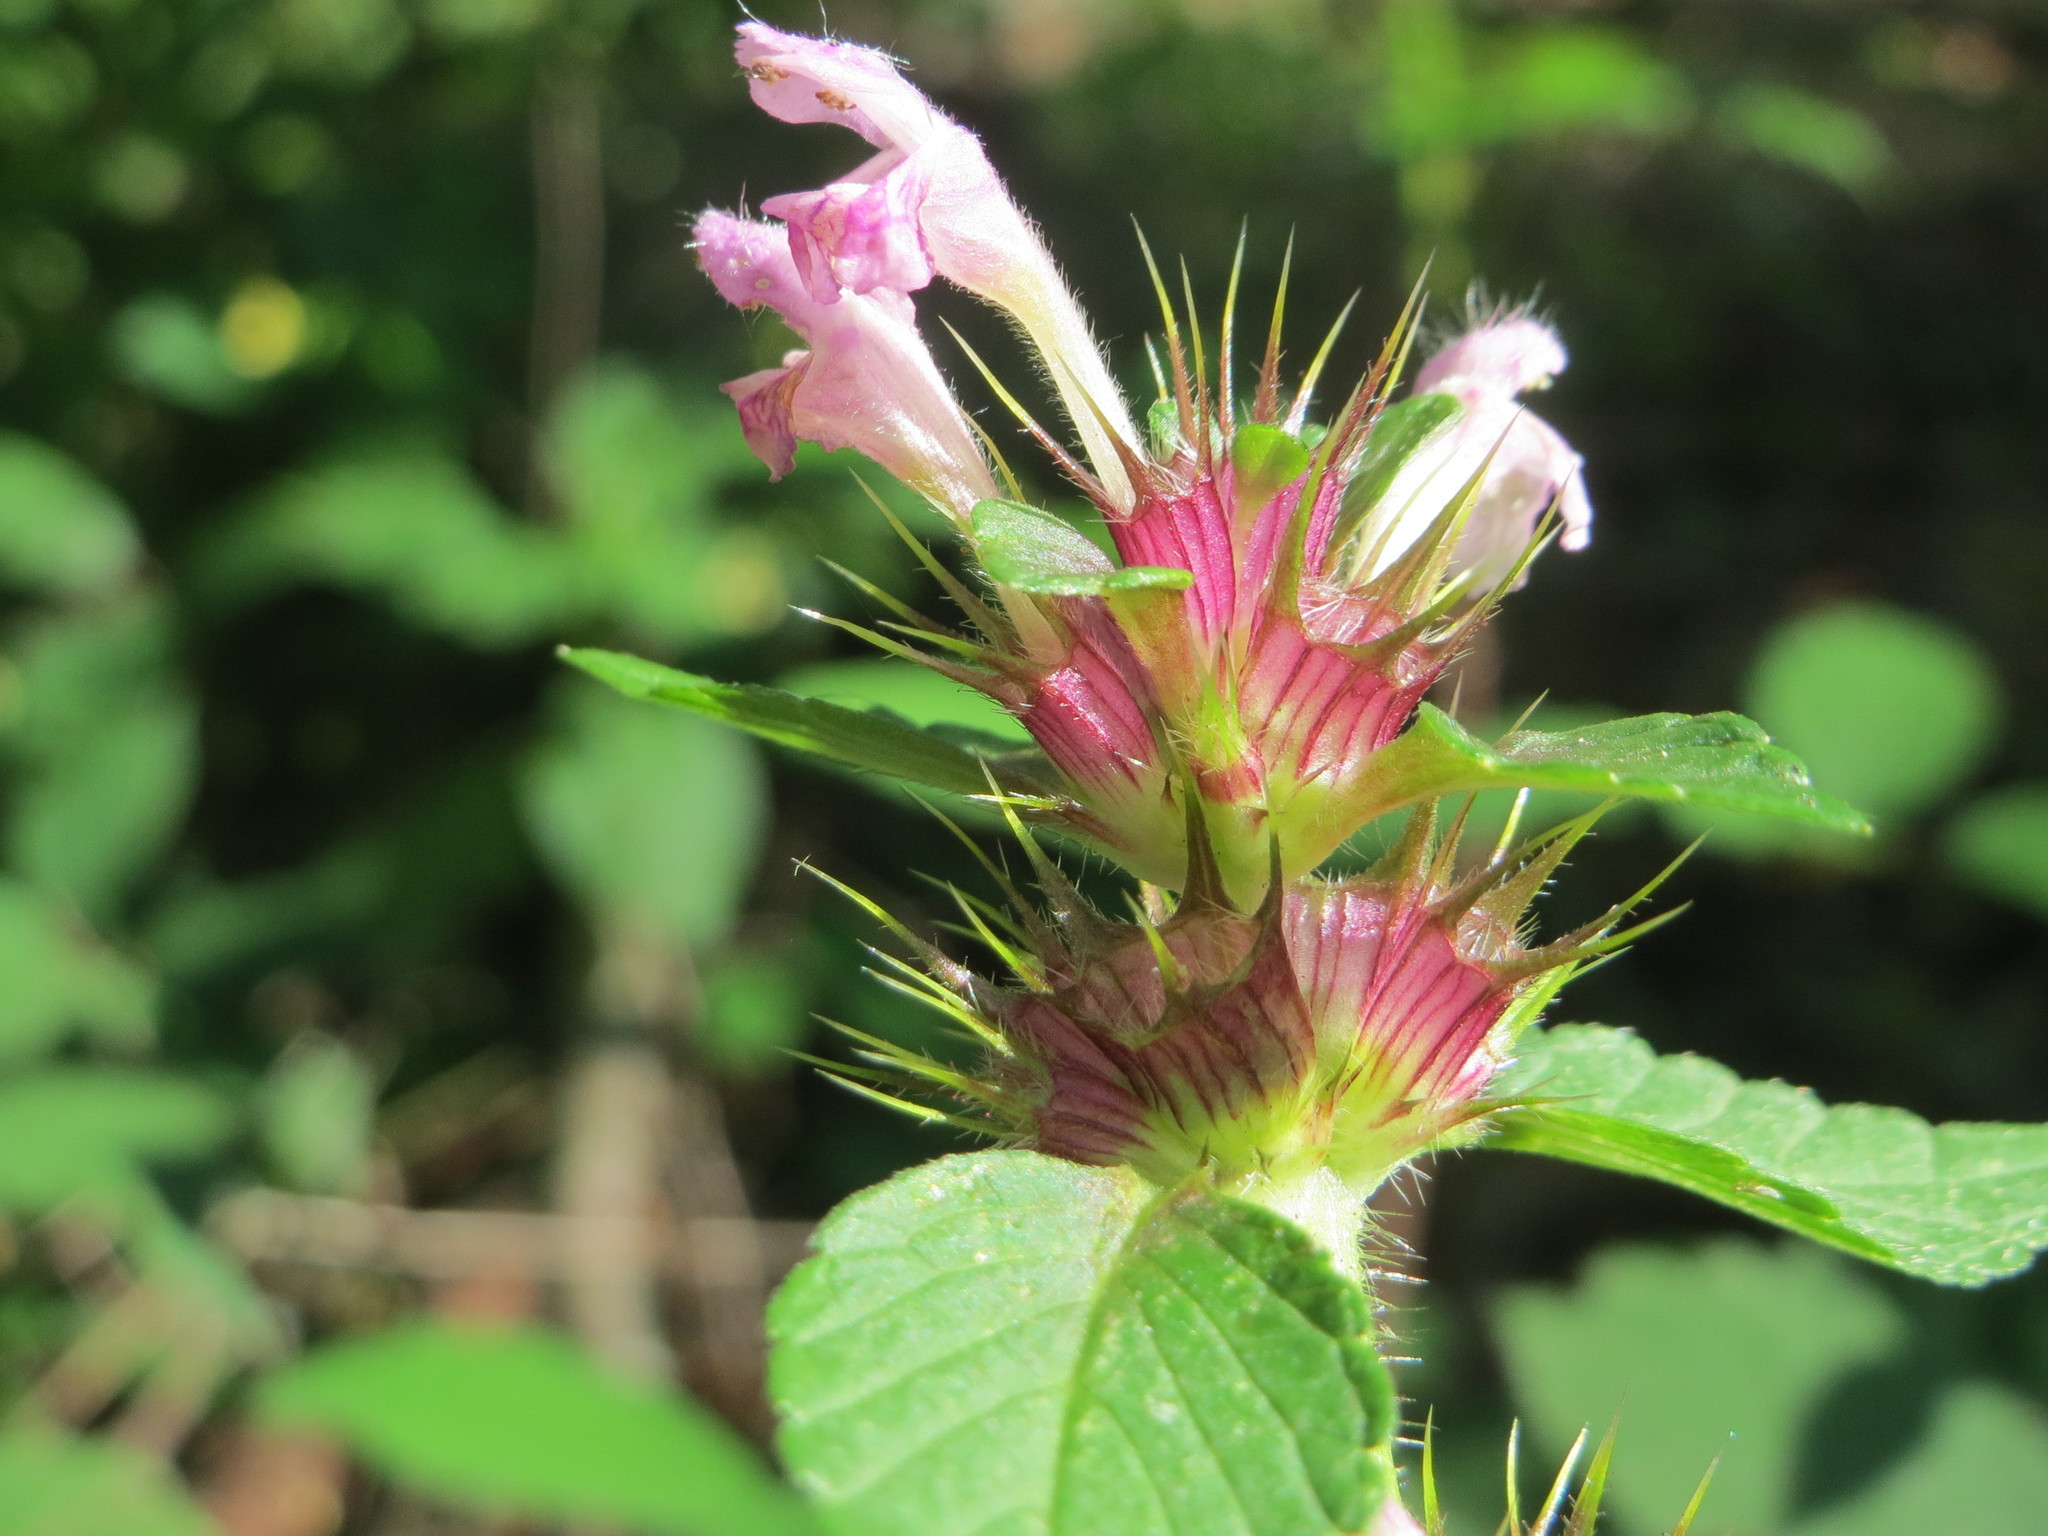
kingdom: Plantae
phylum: Tracheophyta
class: Magnoliopsida
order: Lamiales
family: Lamiaceae
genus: Galeopsis
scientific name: Galeopsis tetrahit
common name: Common hemp-nettle
